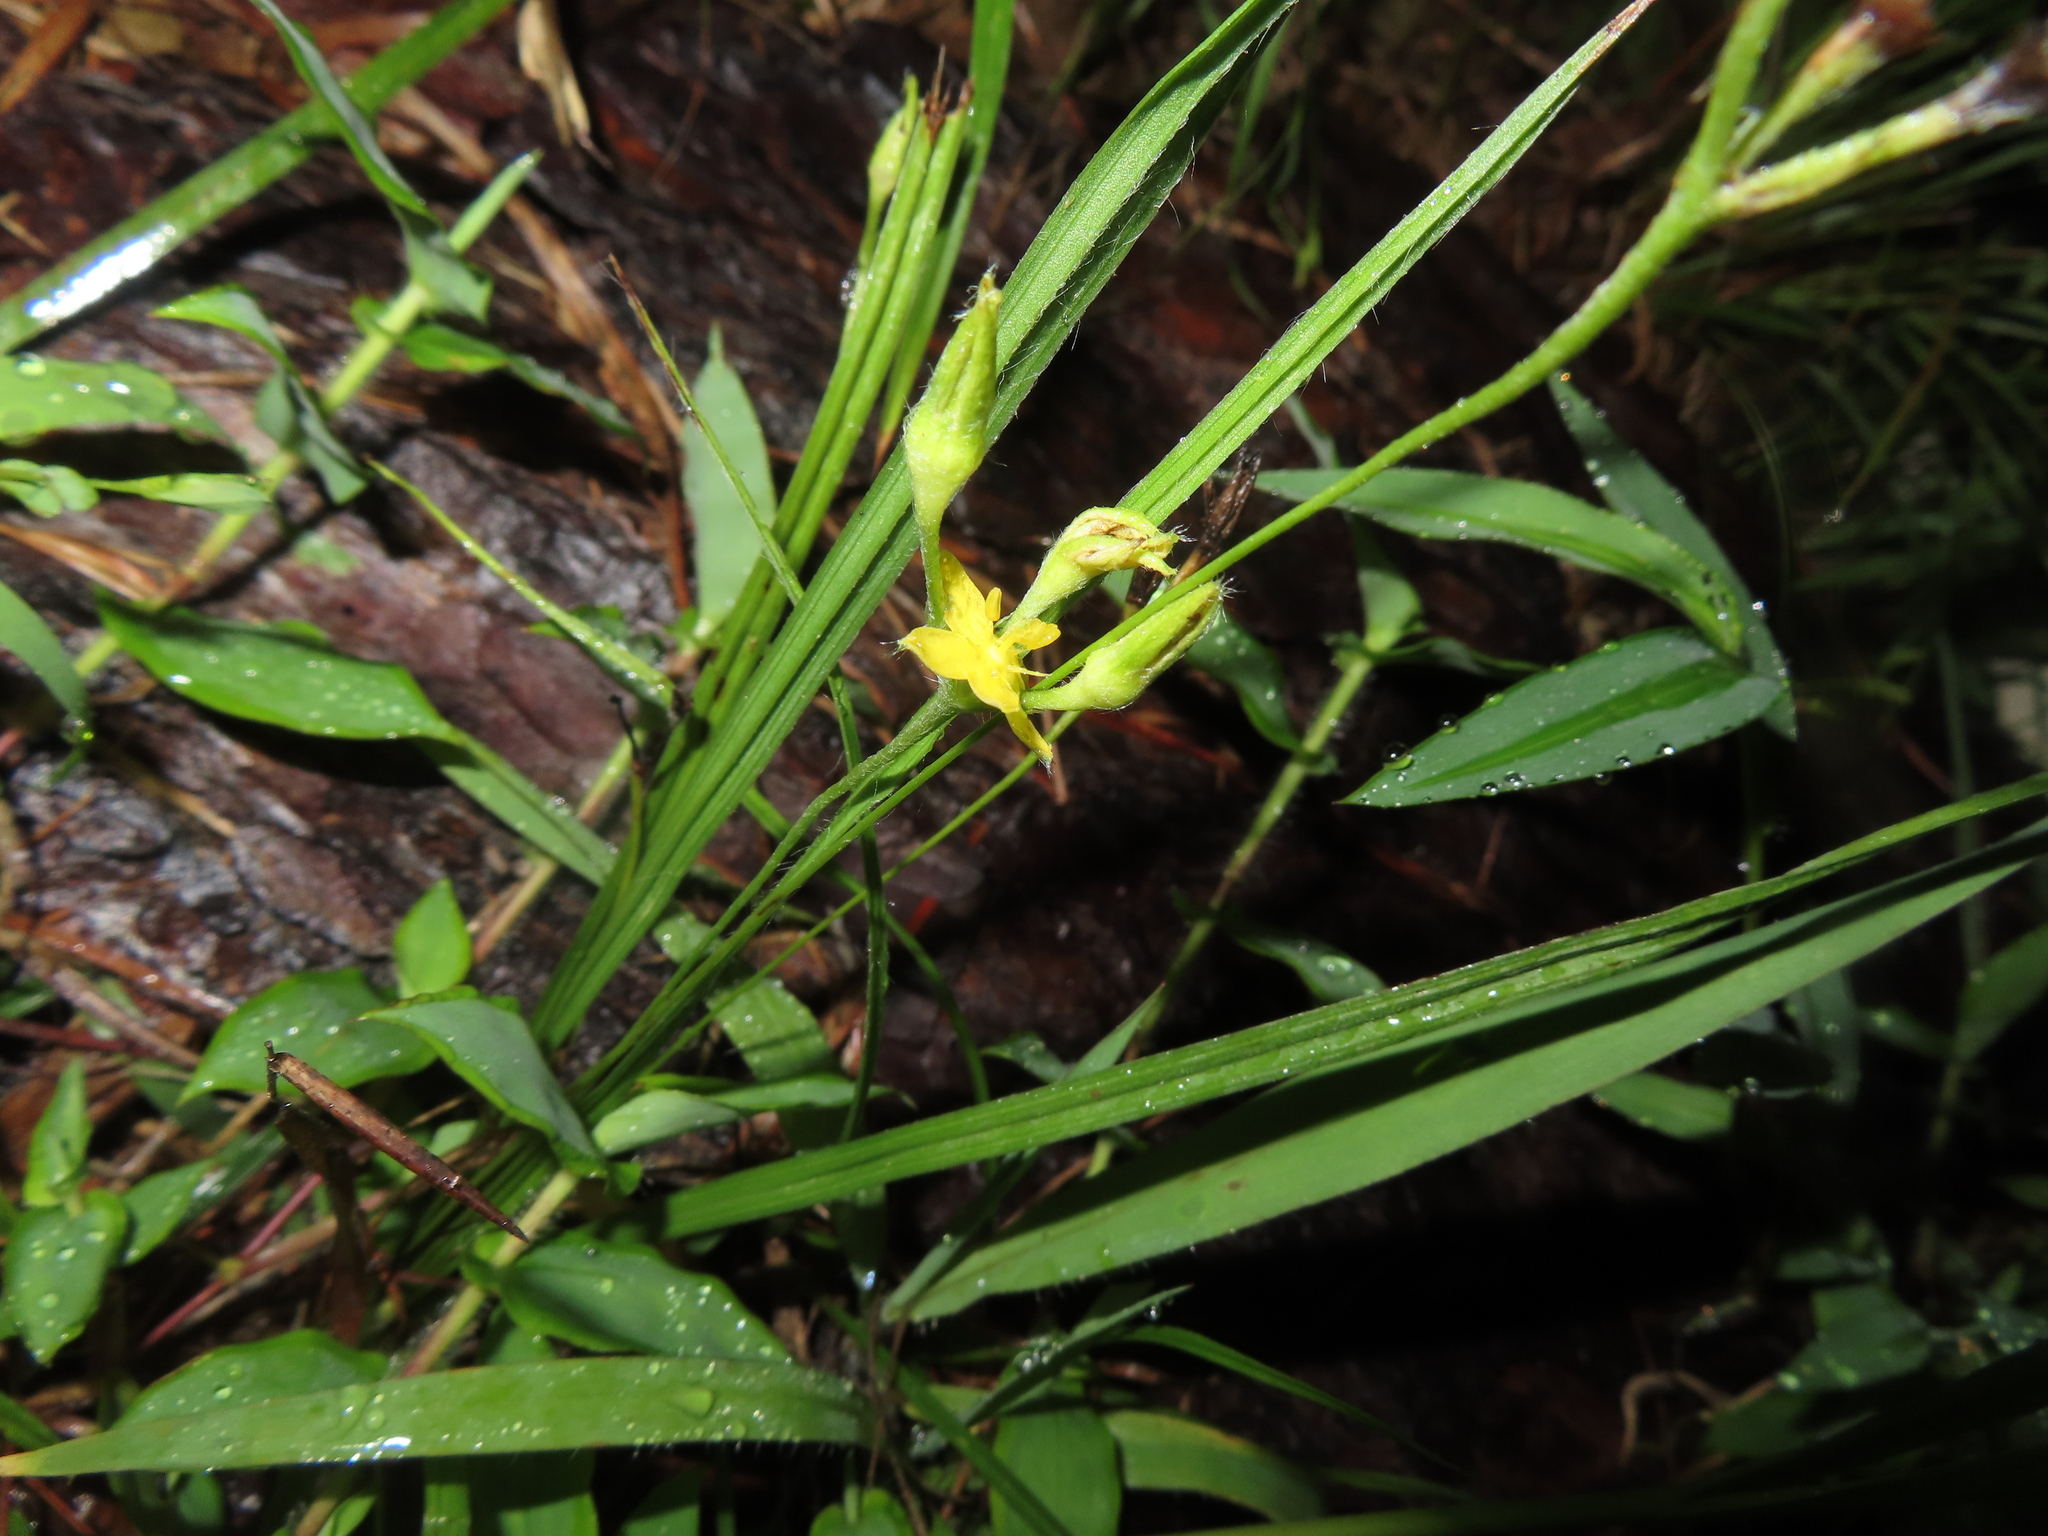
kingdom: Plantae
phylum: Tracheophyta
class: Liliopsida
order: Asparagales
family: Hypoxidaceae
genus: Hypoxis
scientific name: Hypoxis hirsuta
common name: Common goldstar
